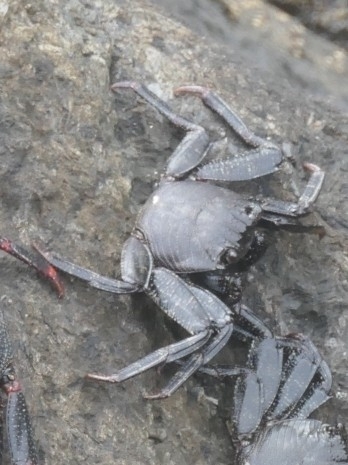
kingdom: Animalia
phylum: Arthropoda
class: Malacostraca
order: Decapoda
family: Grapsidae
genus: Grapsus
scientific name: Grapsus adscensionis
